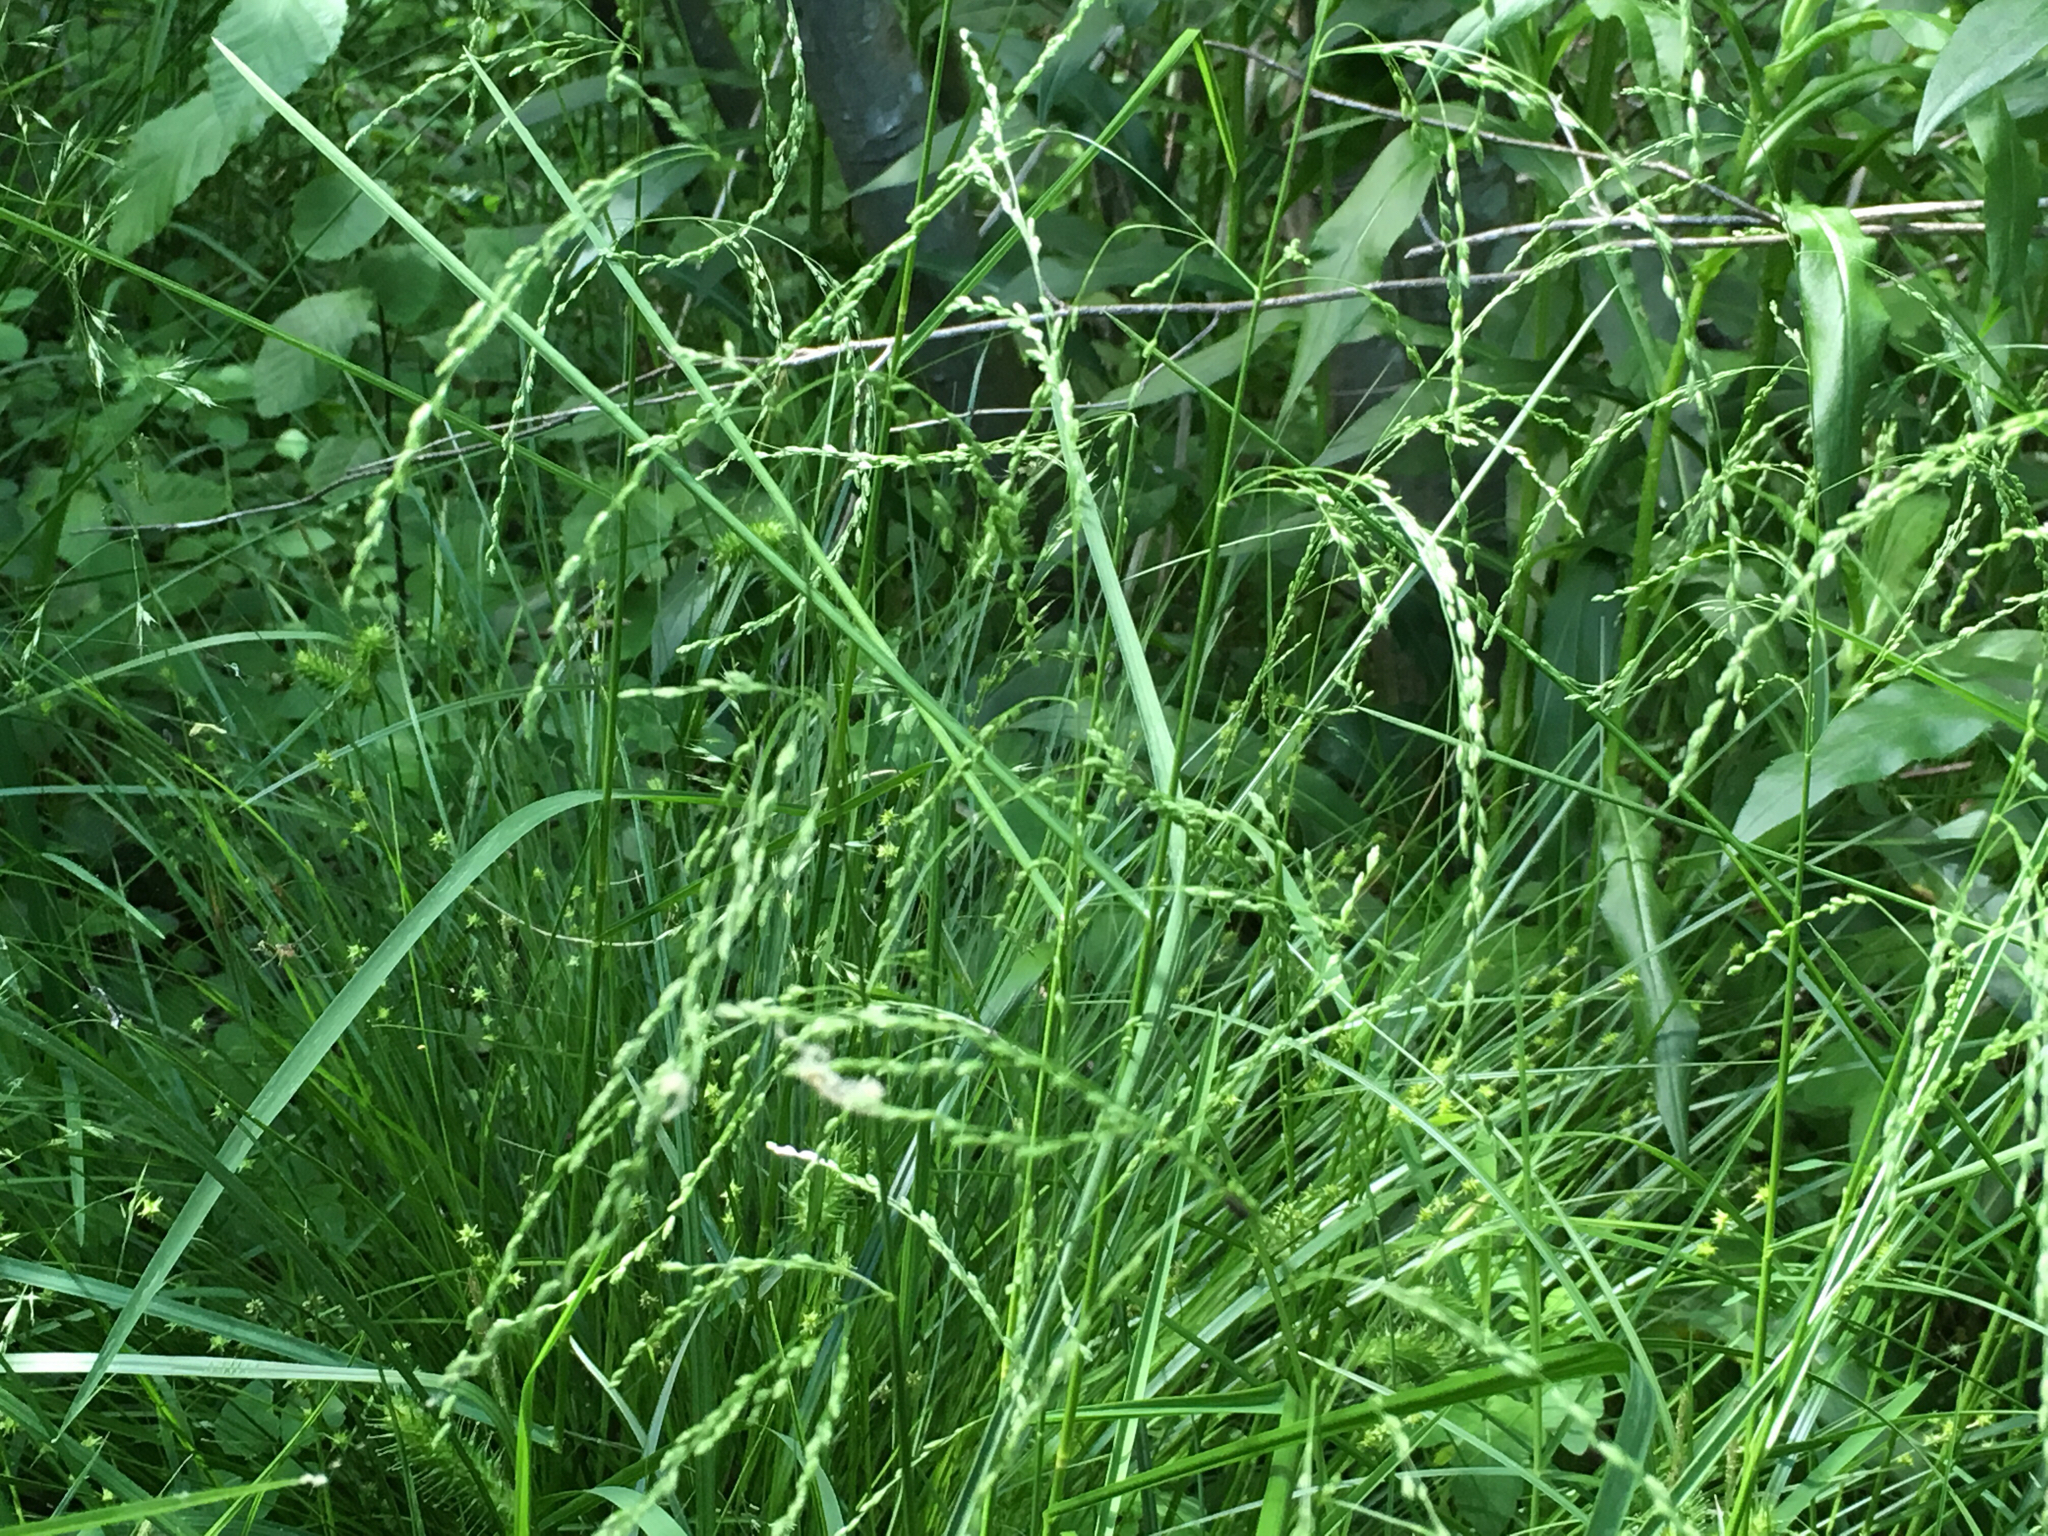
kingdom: Plantae
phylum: Tracheophyta
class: Liliopsida
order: Poales
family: Poaceae
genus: Glyceria
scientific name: Glyceria striata
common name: Fowl manna grass
